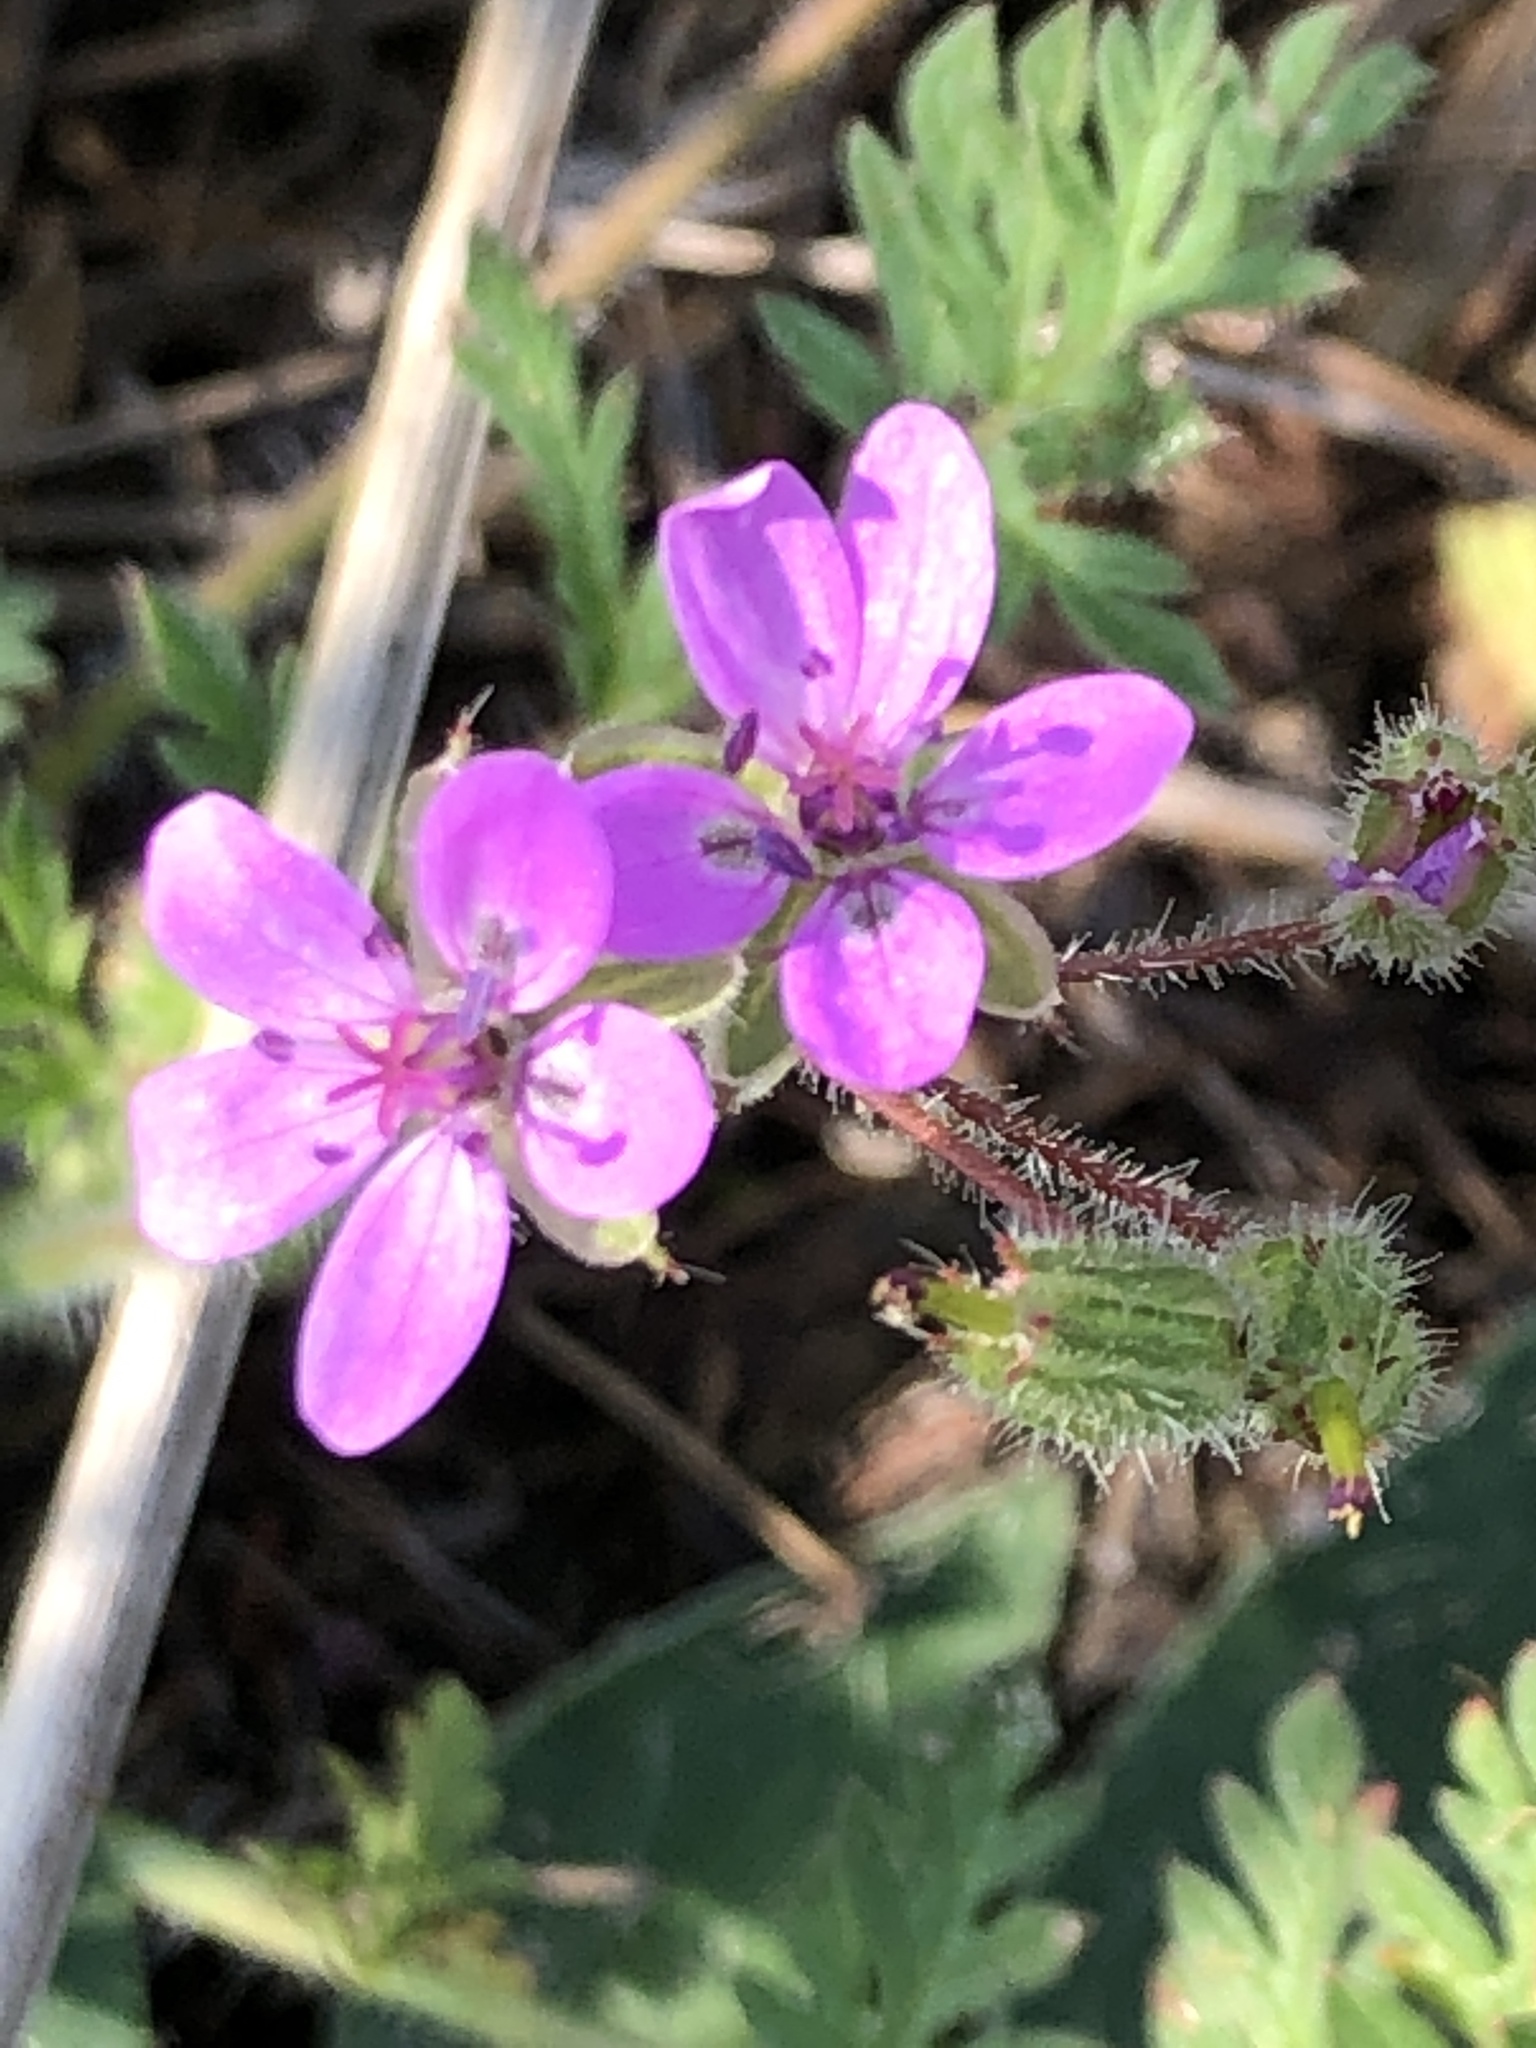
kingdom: Plantae
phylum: Tracheophyta
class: Magnoliopsida
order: Geraniales
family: Geraniaceae
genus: Erodium
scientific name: Erodium cicutarium
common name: Common stork's-bill
